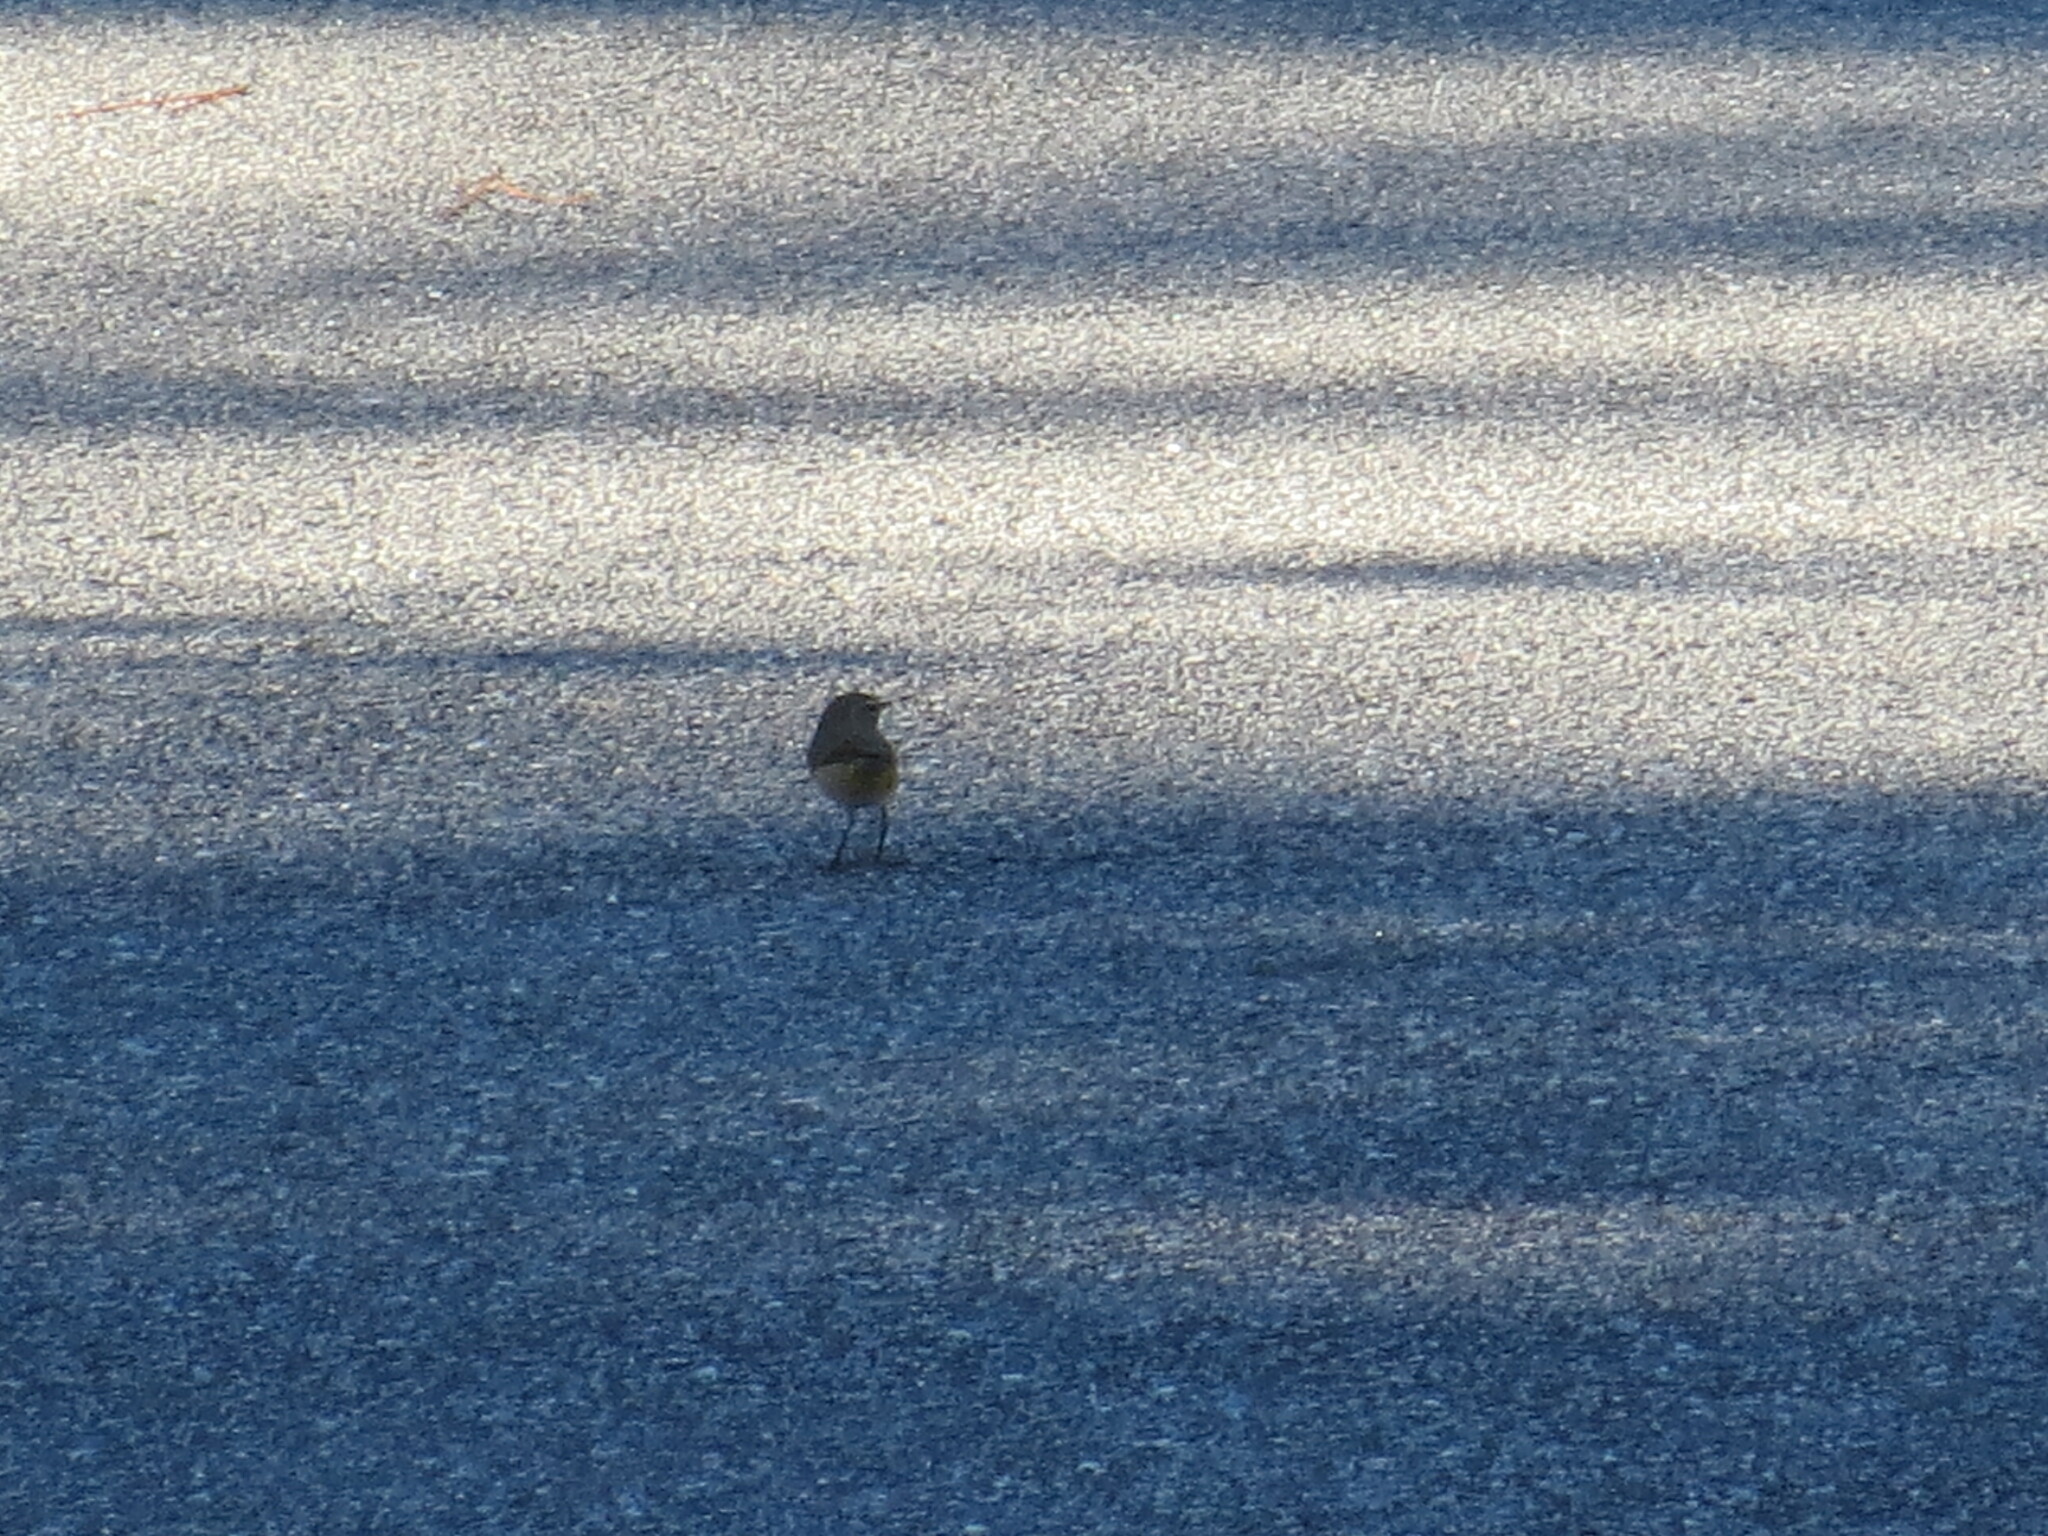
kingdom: Animalia
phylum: Chordata
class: Aves
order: Passeriformes
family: Parulidae
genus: Setophaga
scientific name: Setophaga palmarum
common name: Palm warbler
